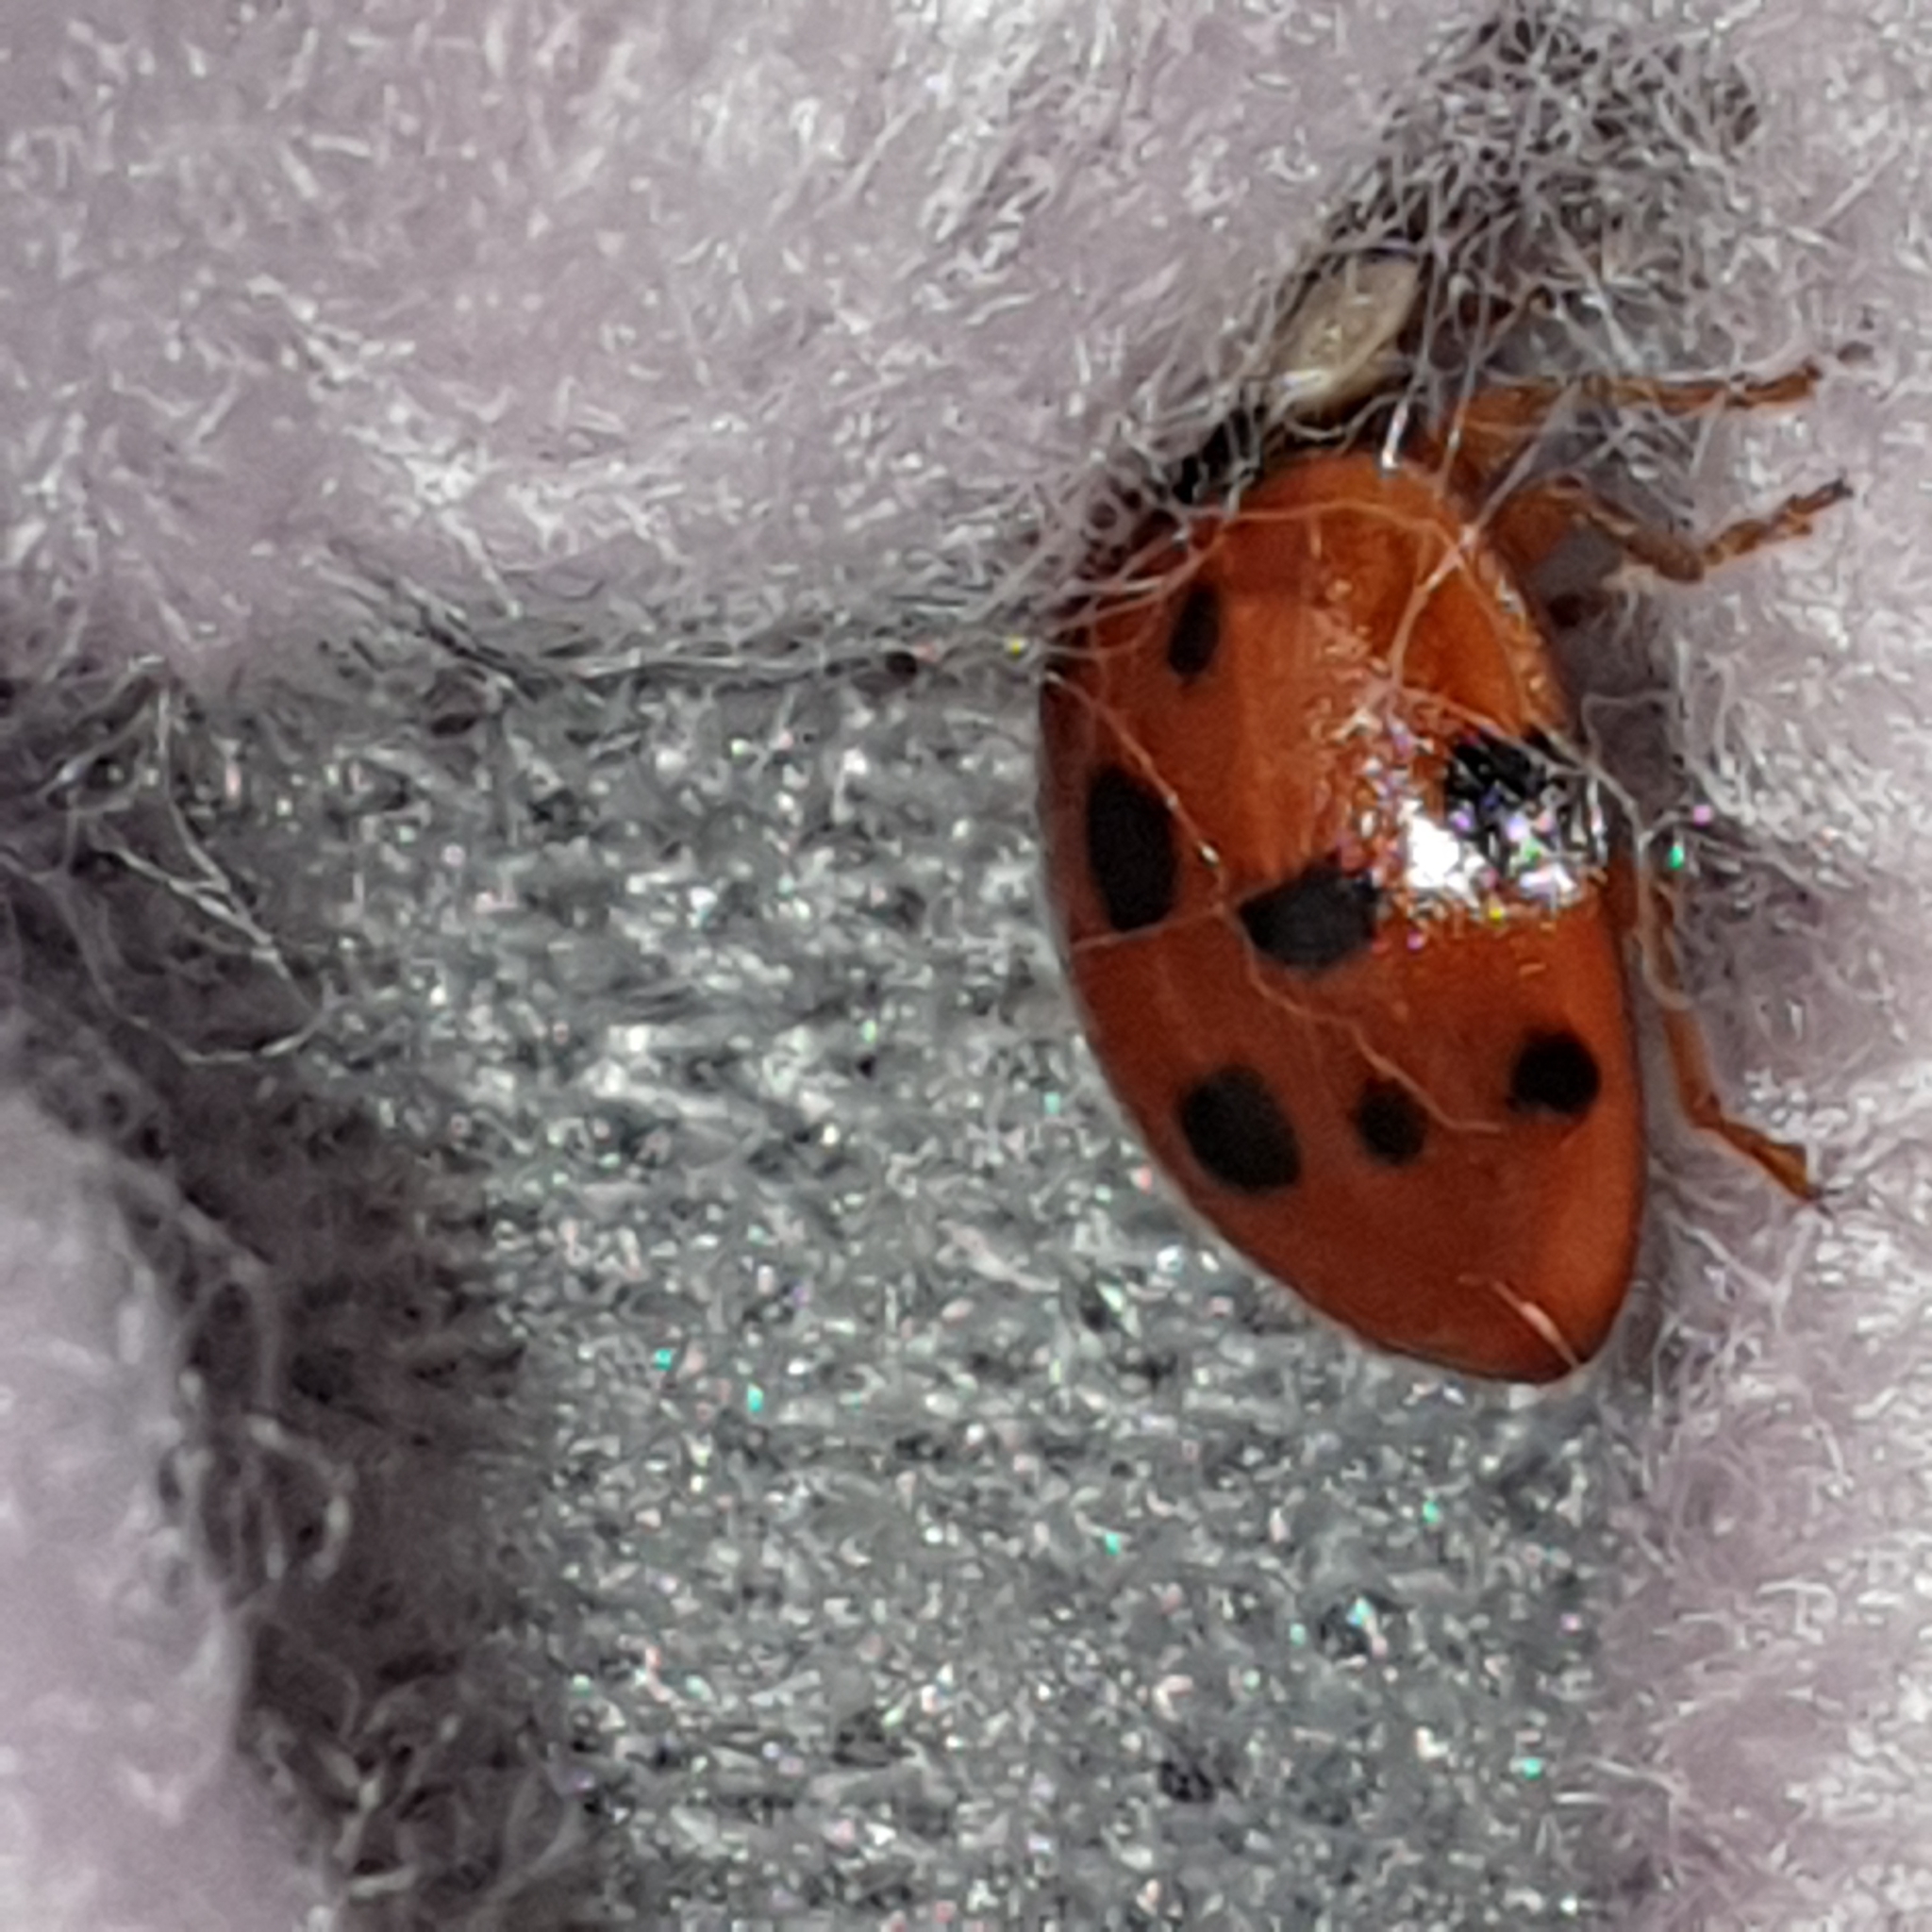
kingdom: Animalia
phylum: Arthropoda
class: Insecta
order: Coleoptera
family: Coccinellidae
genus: Harmonia
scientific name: Harmonia axyridis
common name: Harlequin ladybird
